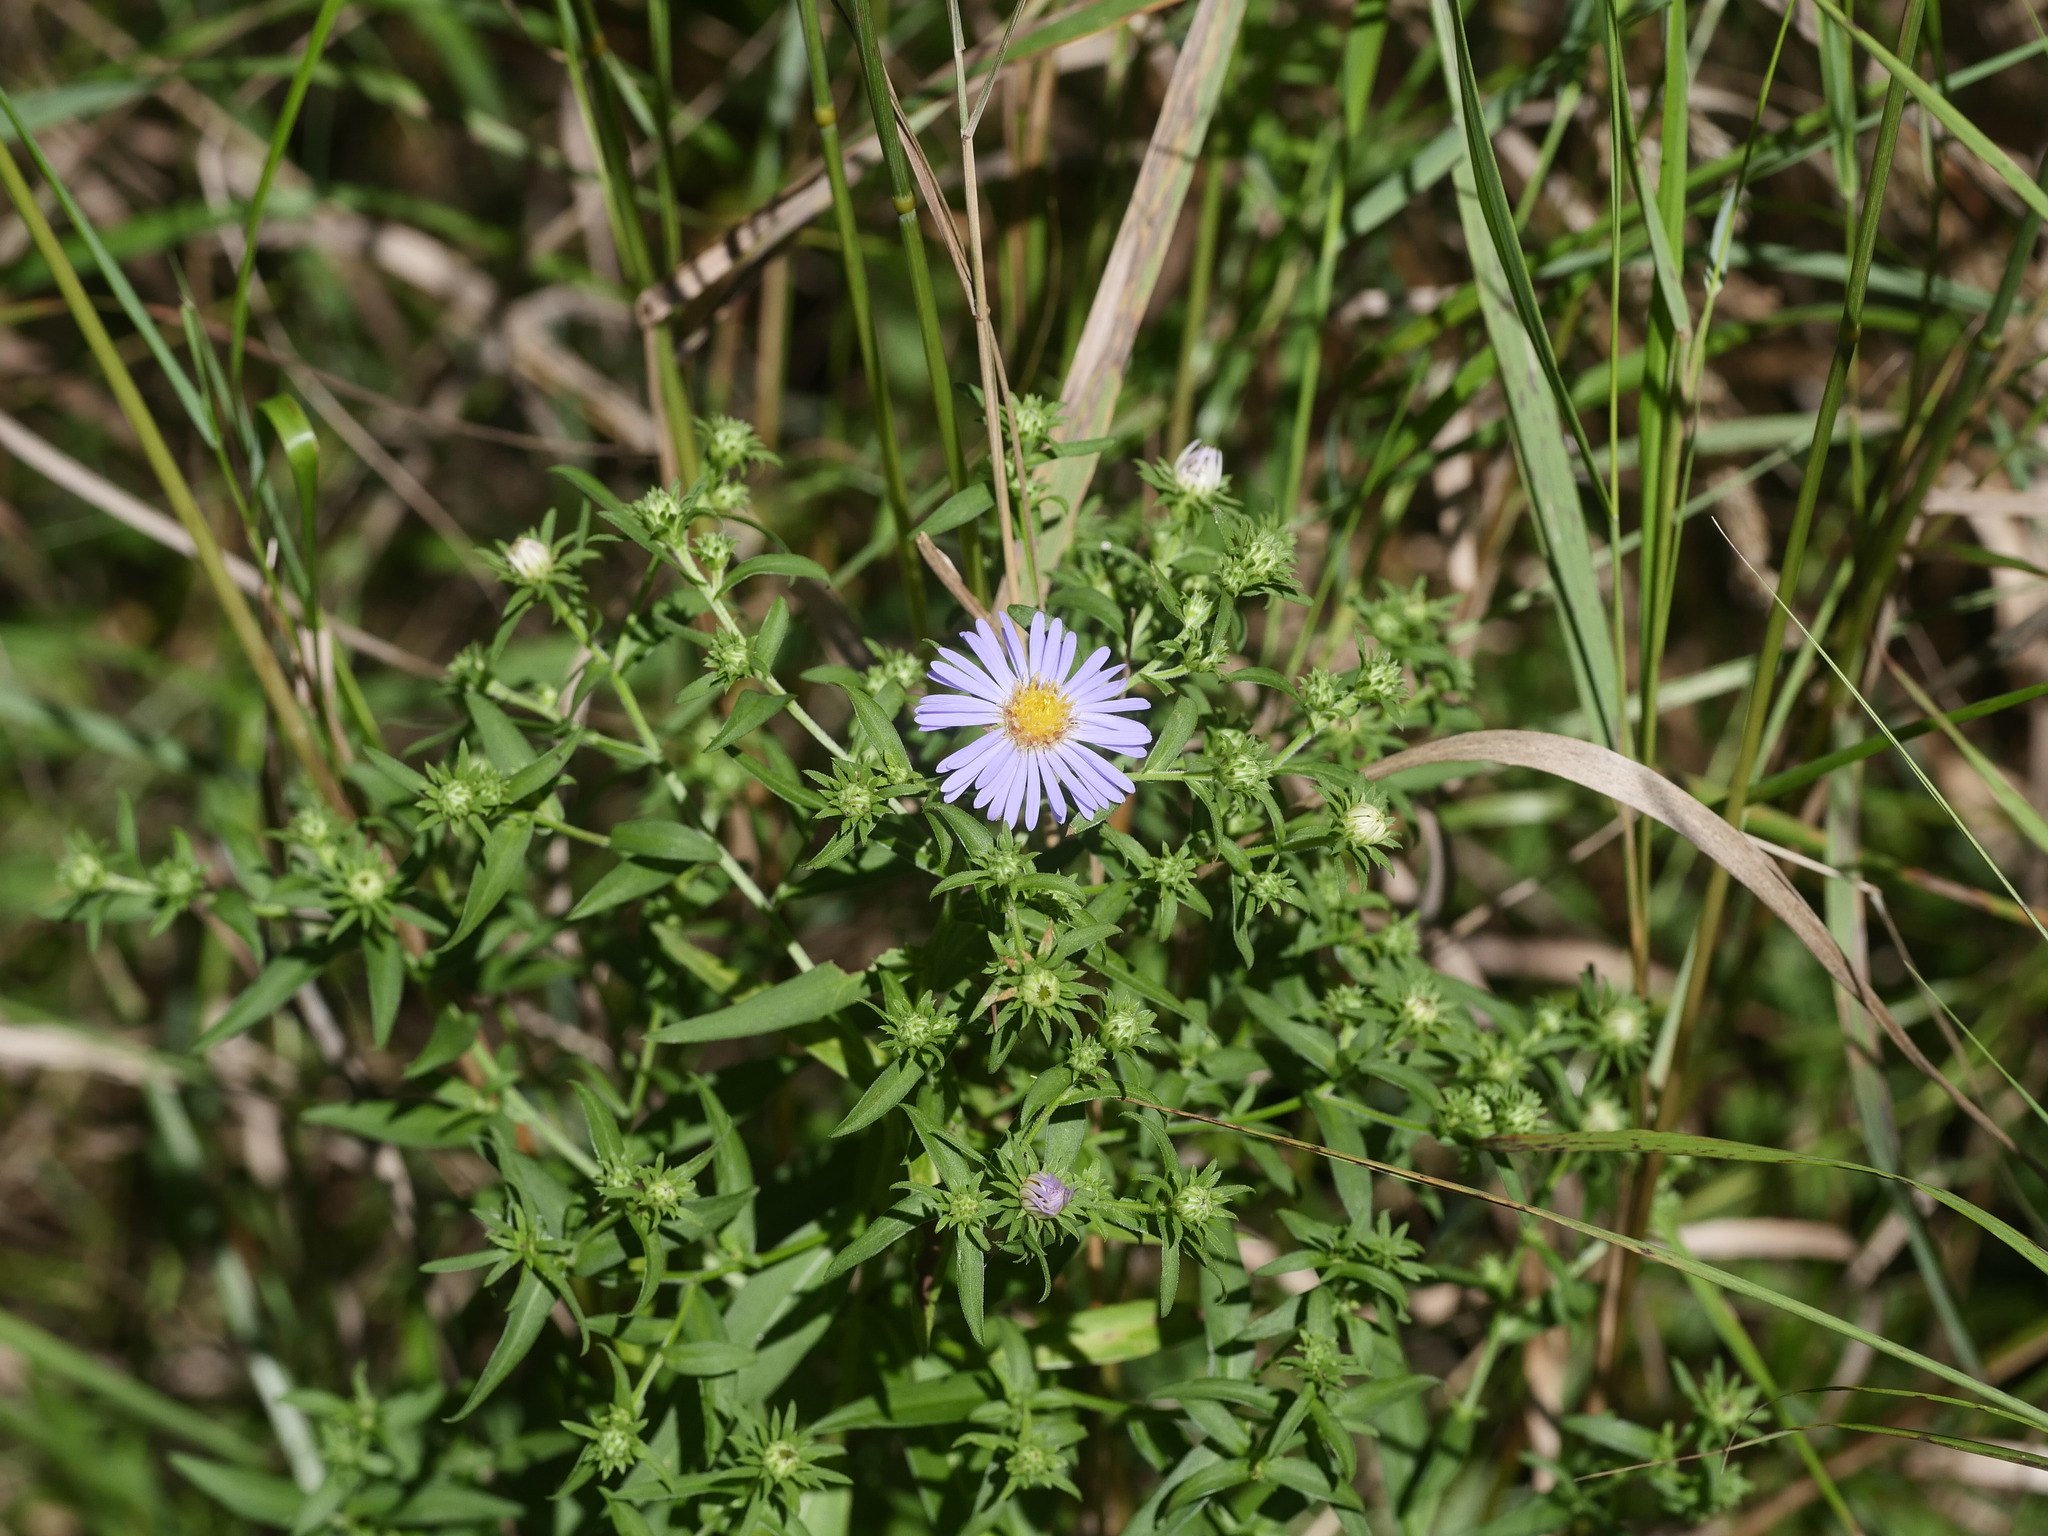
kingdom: Plantae
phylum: Tracheophyta
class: Magnoliopsida
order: Asterales
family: Asteraceae
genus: Symphyotrichum
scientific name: Symphyotrichum novi-belgii
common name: Michaelmas daisy
